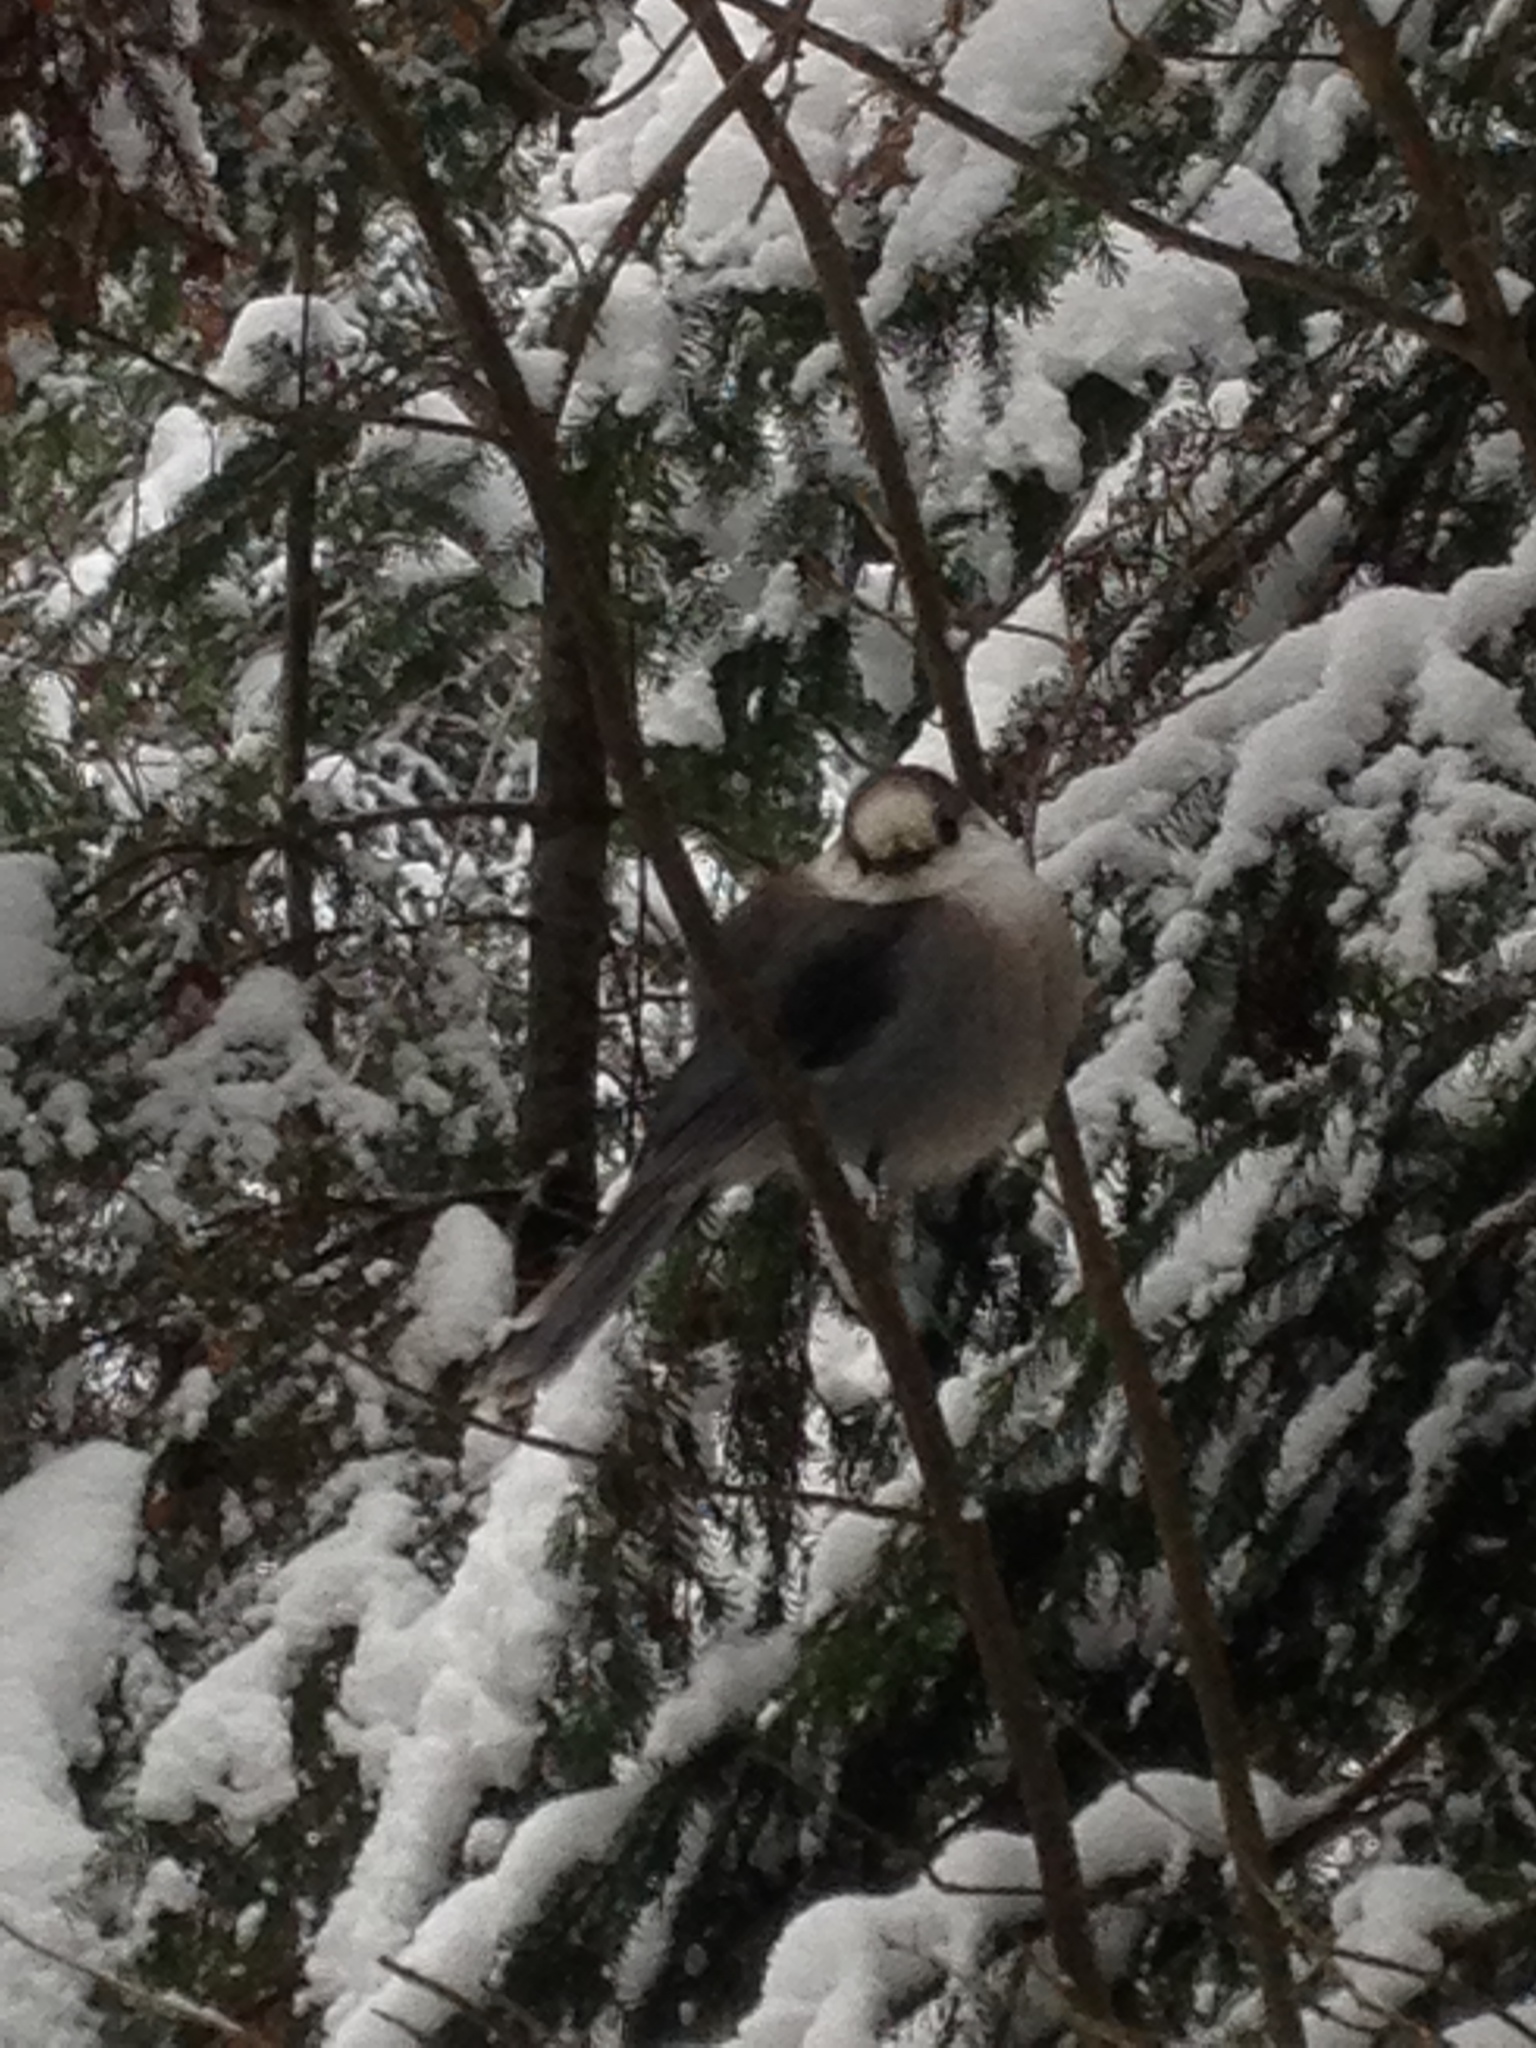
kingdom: Animalia
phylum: Chordata
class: Aves
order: Passeriformes
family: Corvidae
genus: Perisoreus
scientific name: Perisoreus canadensis
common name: Gray jay
